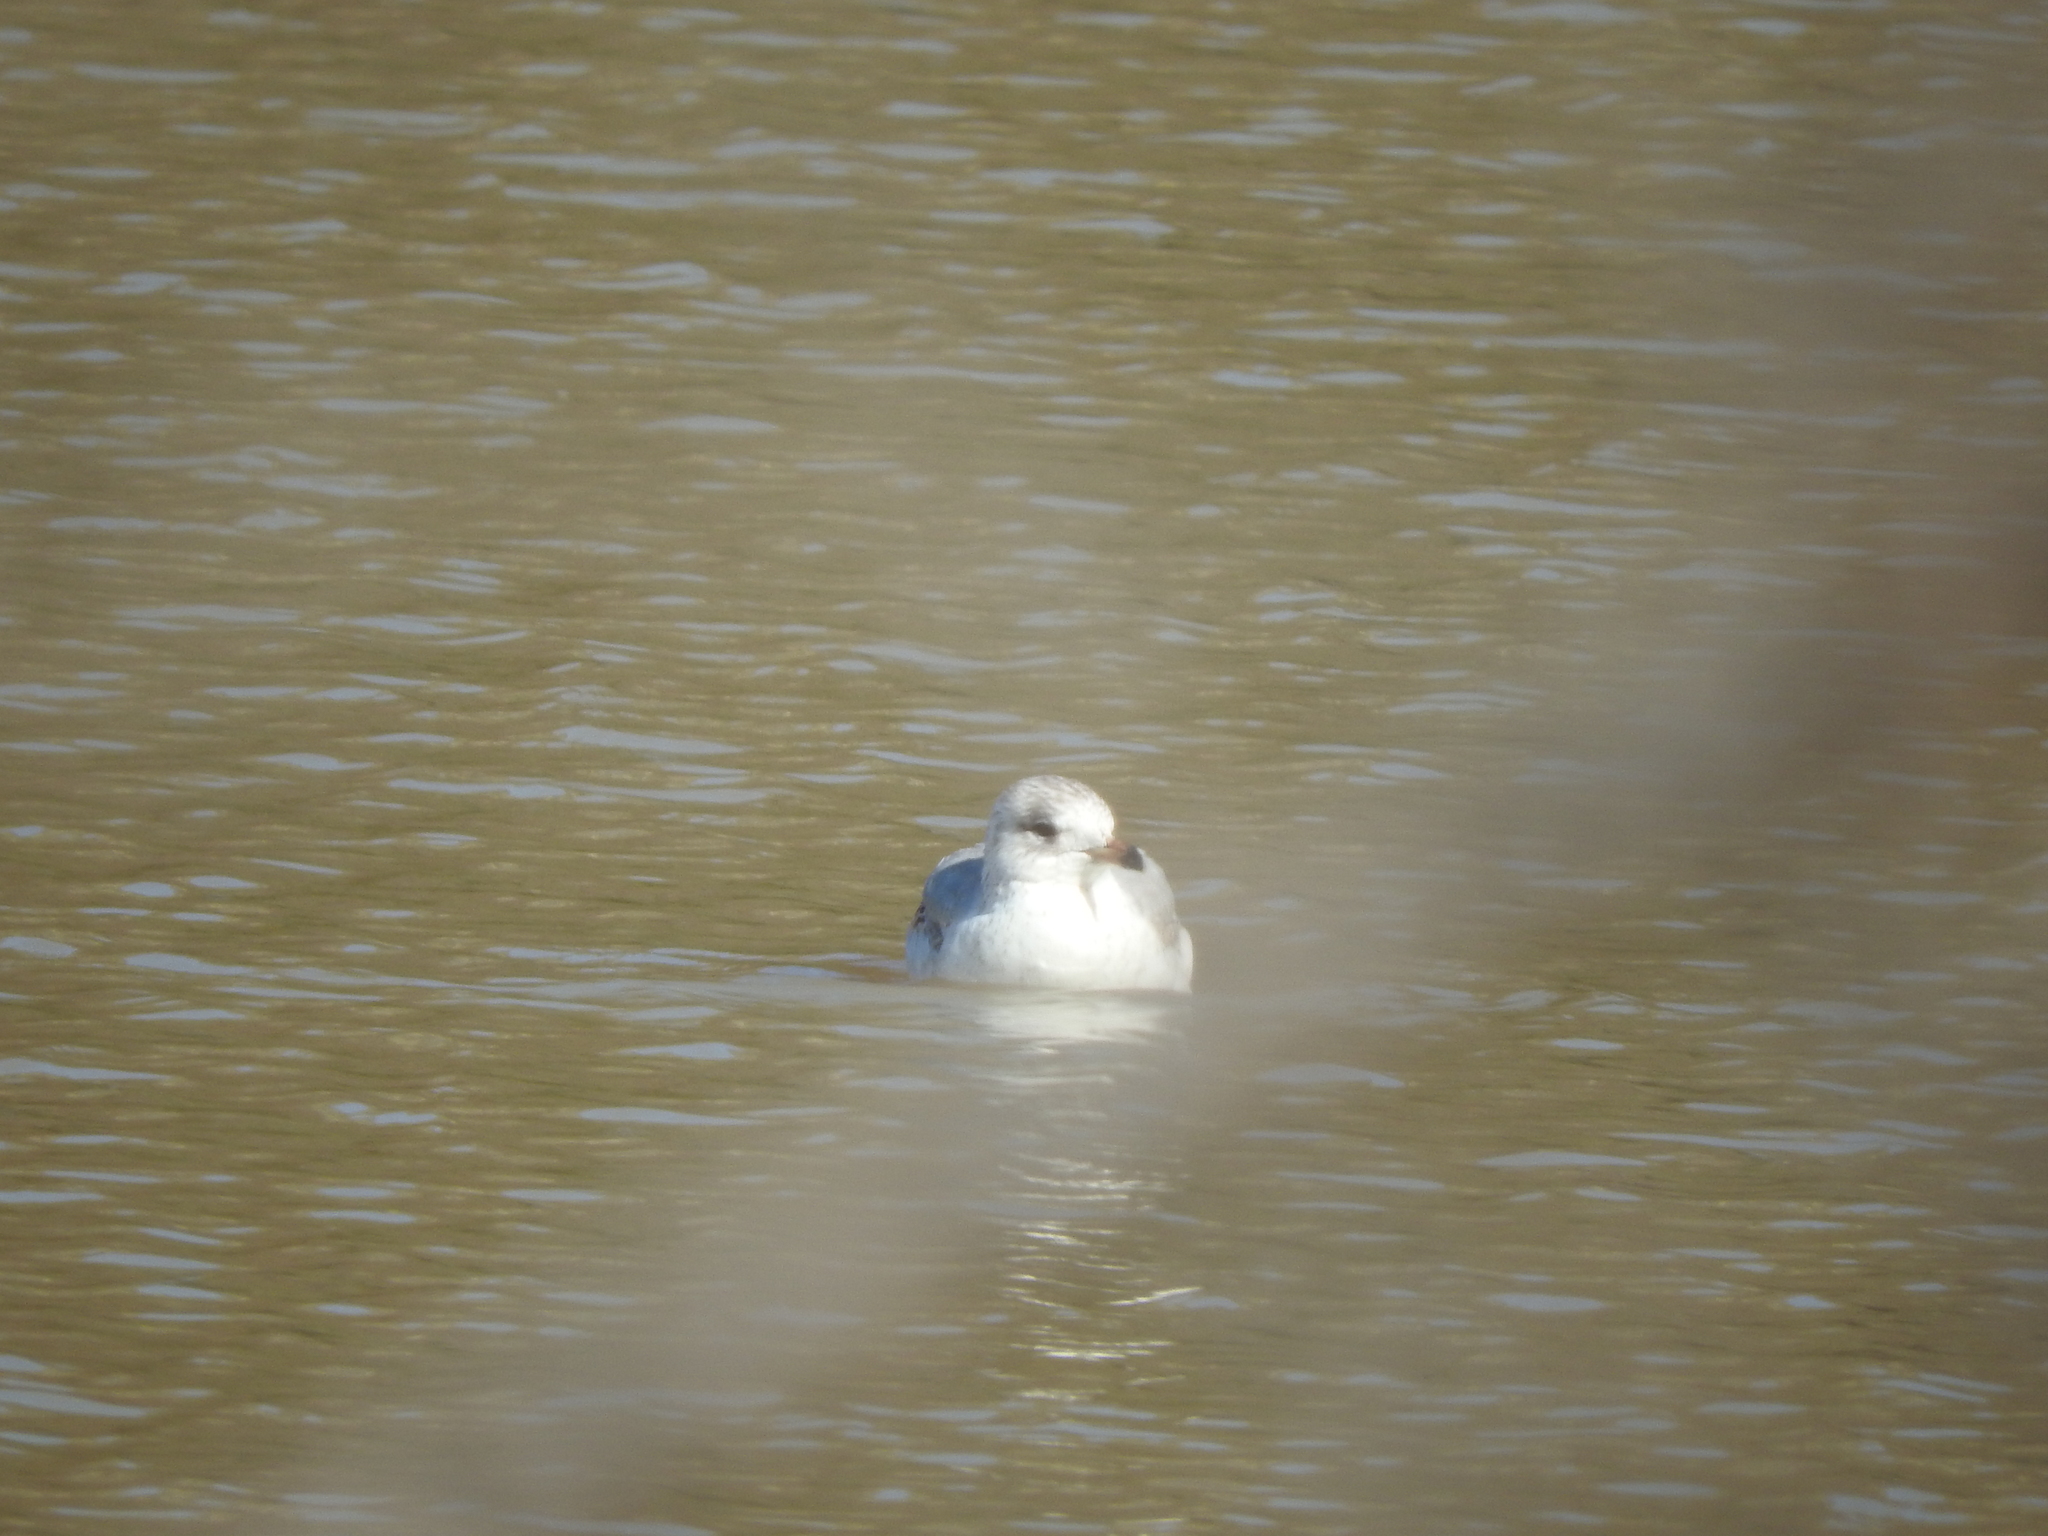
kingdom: Animalia
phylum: Chordata
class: Aves
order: Charadriiformes
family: Laridae
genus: Larus
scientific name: Larus delawarensis
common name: Ring-billed gull
